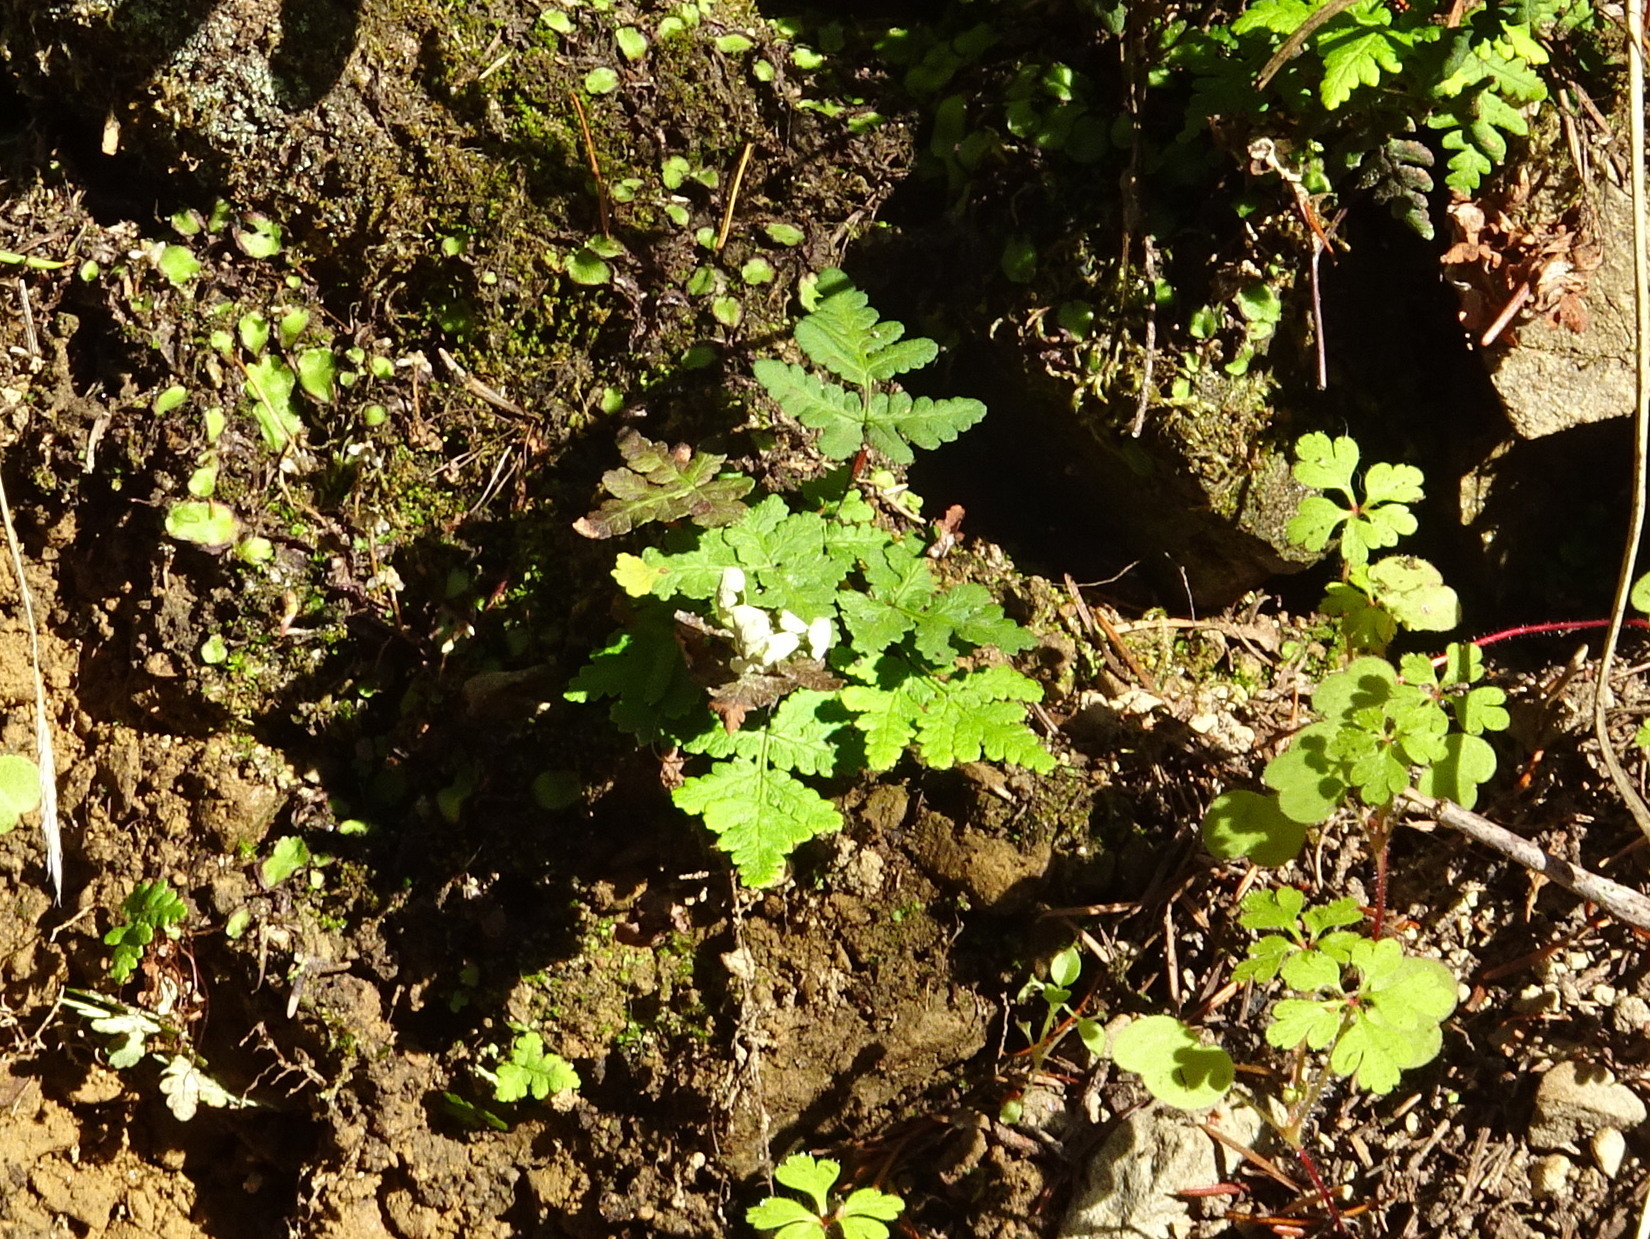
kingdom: Plantae
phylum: Tracheophyta
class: Polypodiopsida
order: Polypodiales
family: Pteridaceae
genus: Pentagramma
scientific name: Pentagramma triangularis
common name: Gold fern
